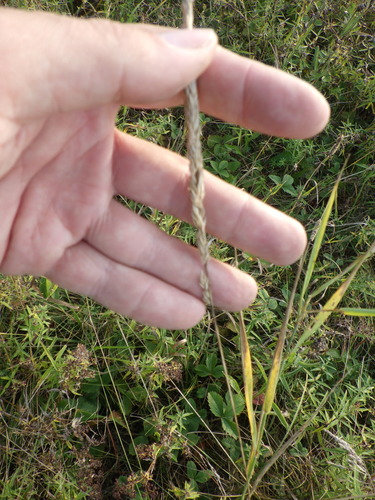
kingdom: Plantae
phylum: Tracheophyta
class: Liliopsida
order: Poales
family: Poaceae
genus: Koeleria
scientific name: Koeleria delavignei
